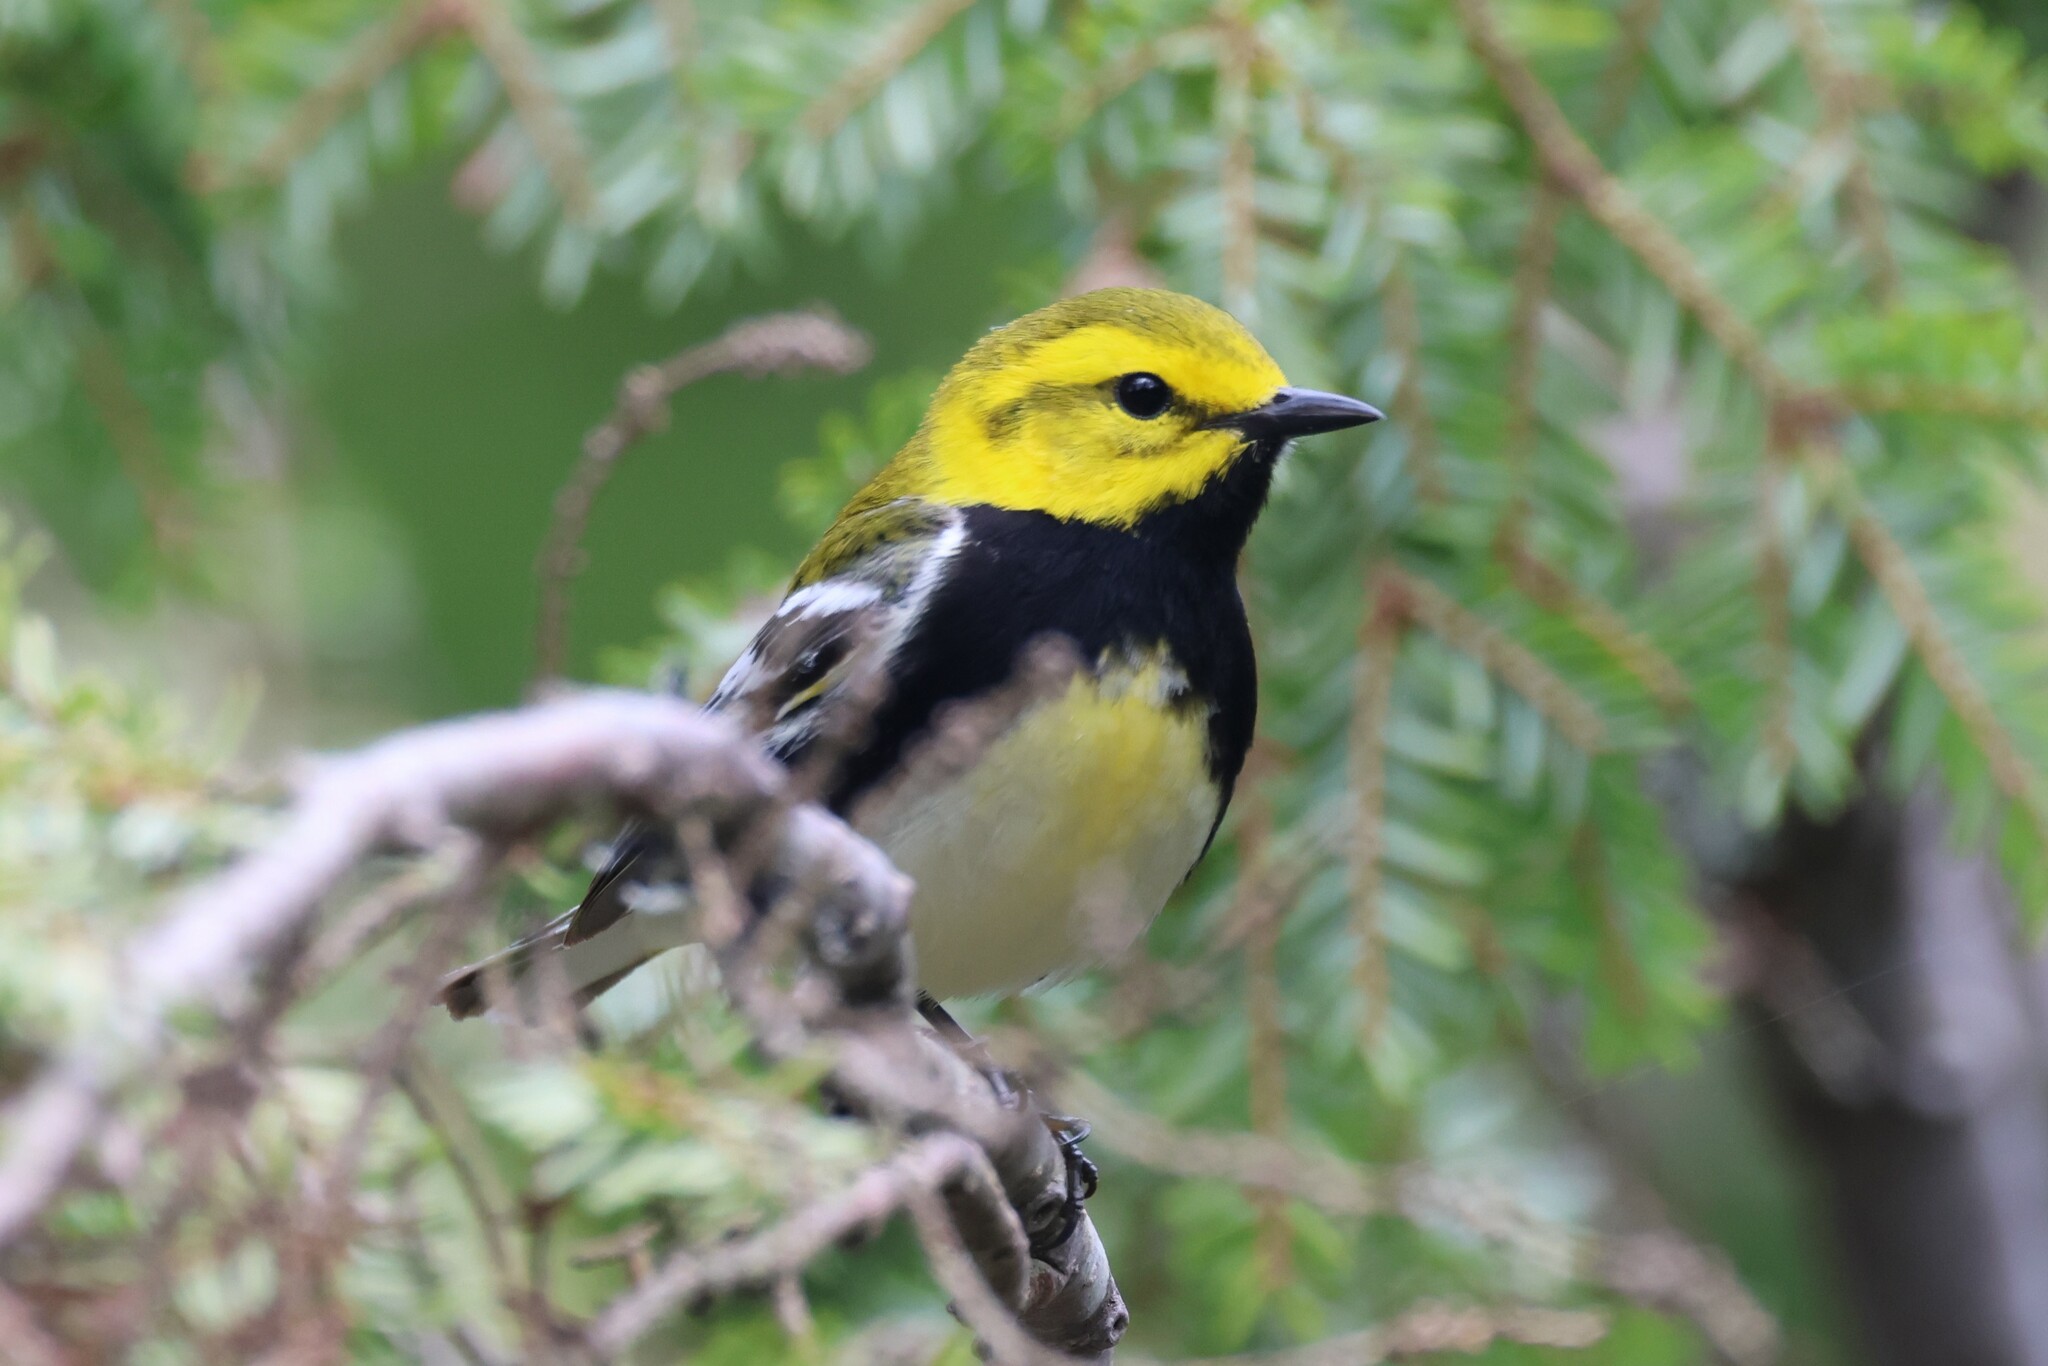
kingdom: Animalia
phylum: Chordata
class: Aves
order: Passeriformes
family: Parulidae
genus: Setophaga
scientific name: Setophaga virens
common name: Black-throated green warbler
